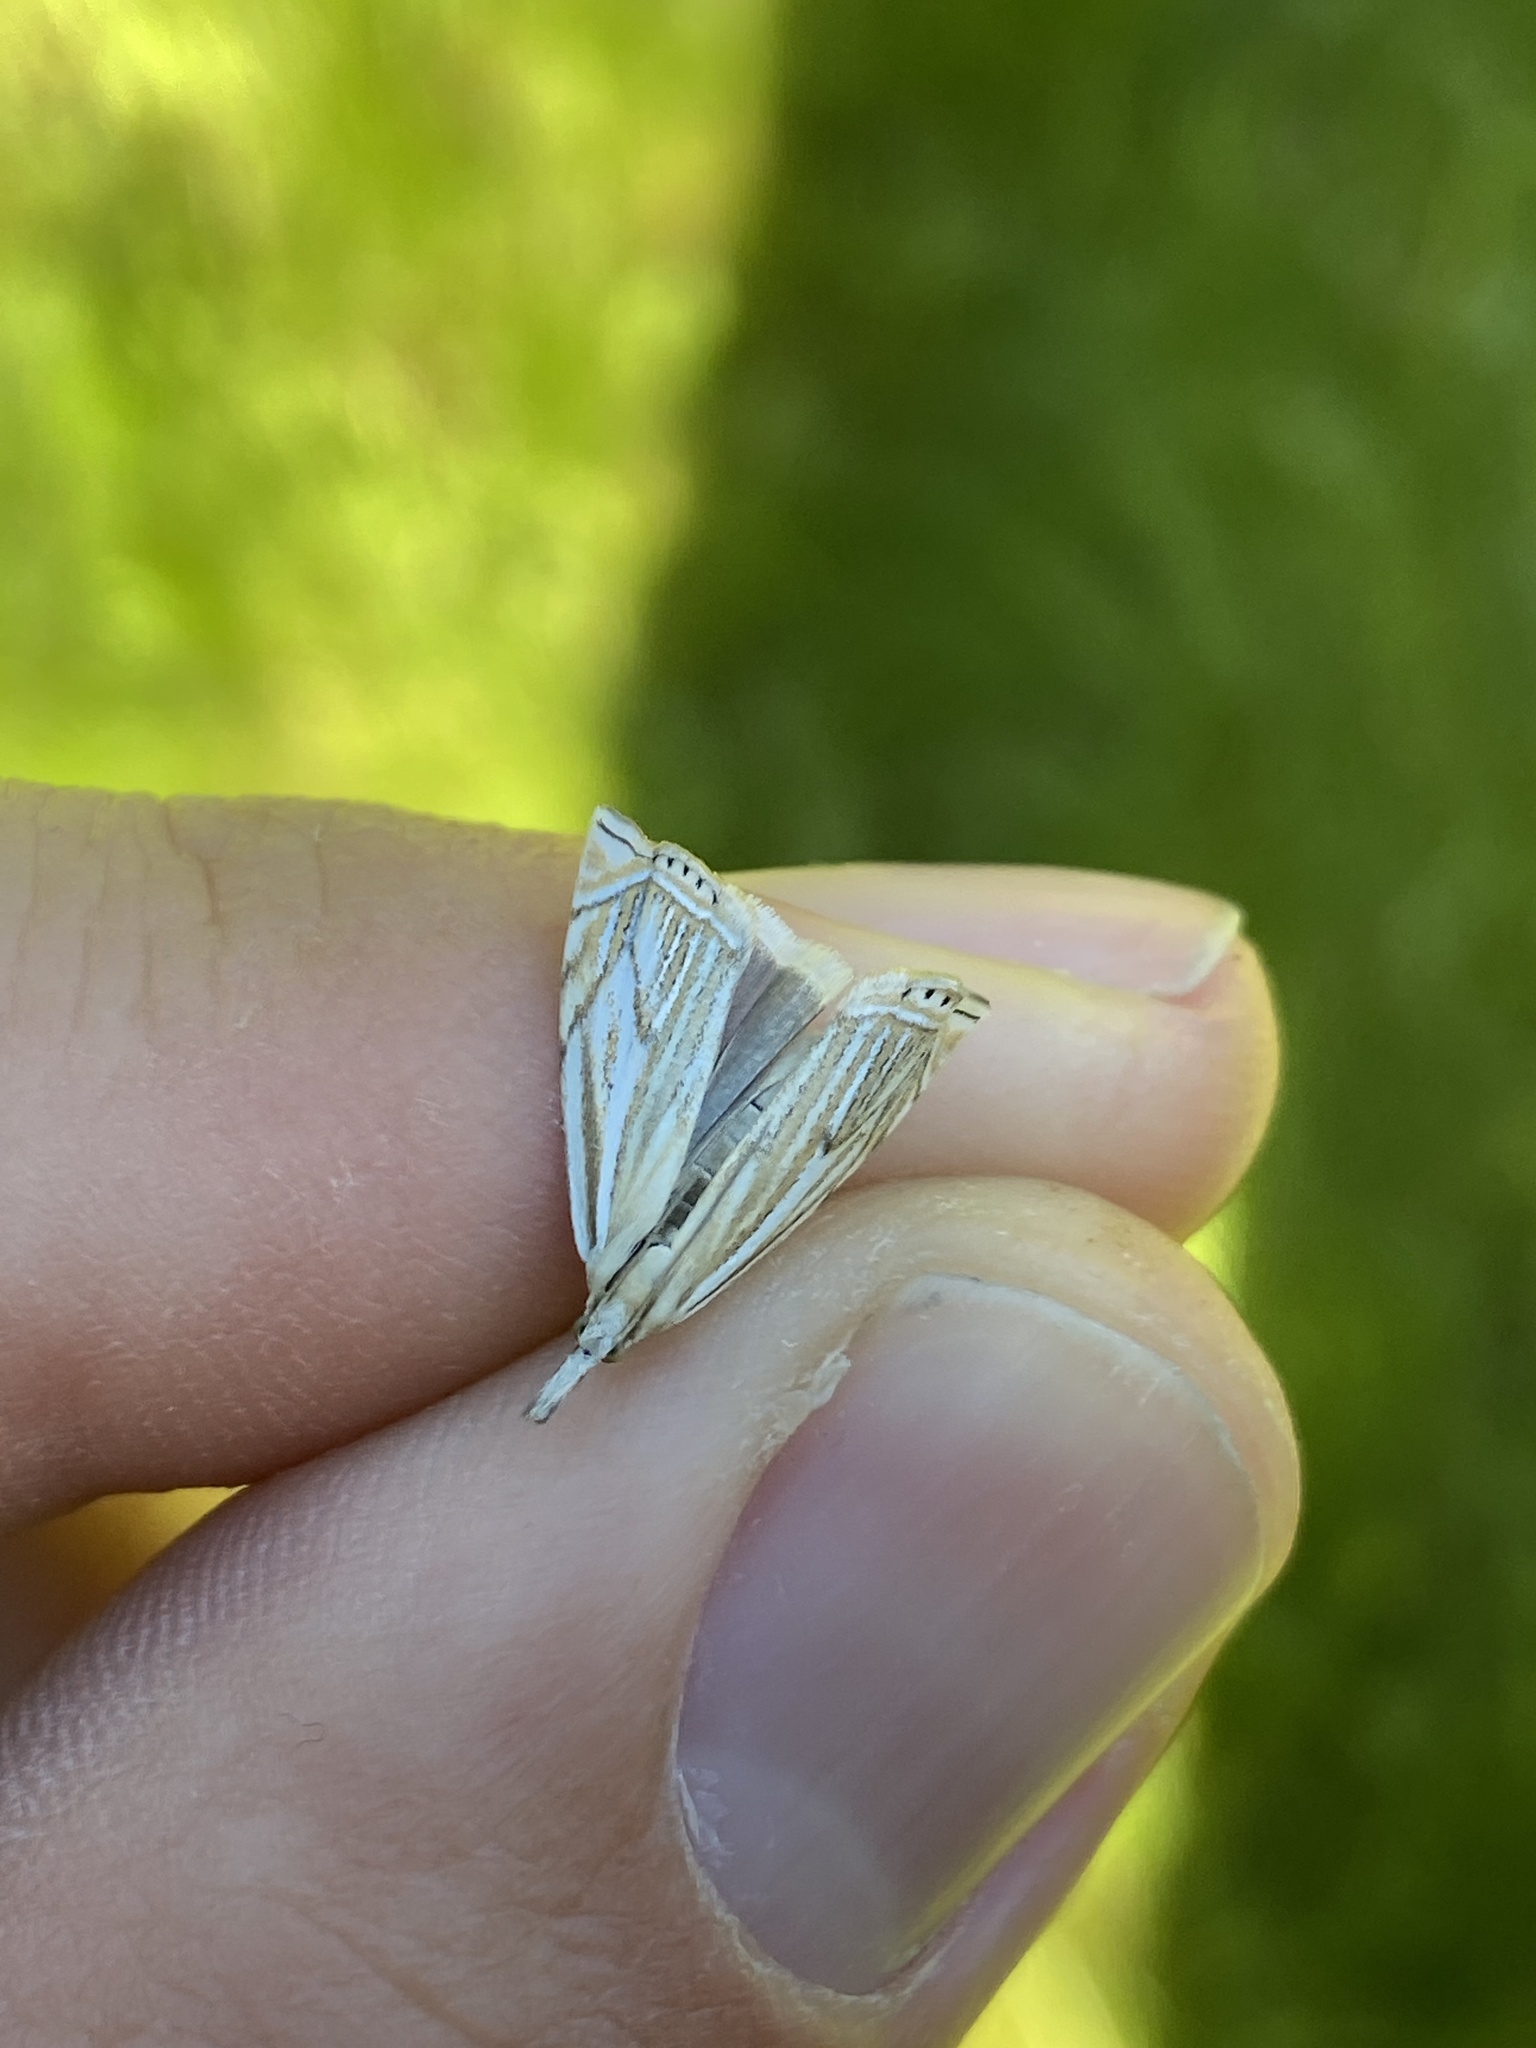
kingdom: Animalia
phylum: Arthropoda
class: Insecta
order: Lepidoptera
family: Crambidae
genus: Crambus
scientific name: Crambus nemorella
